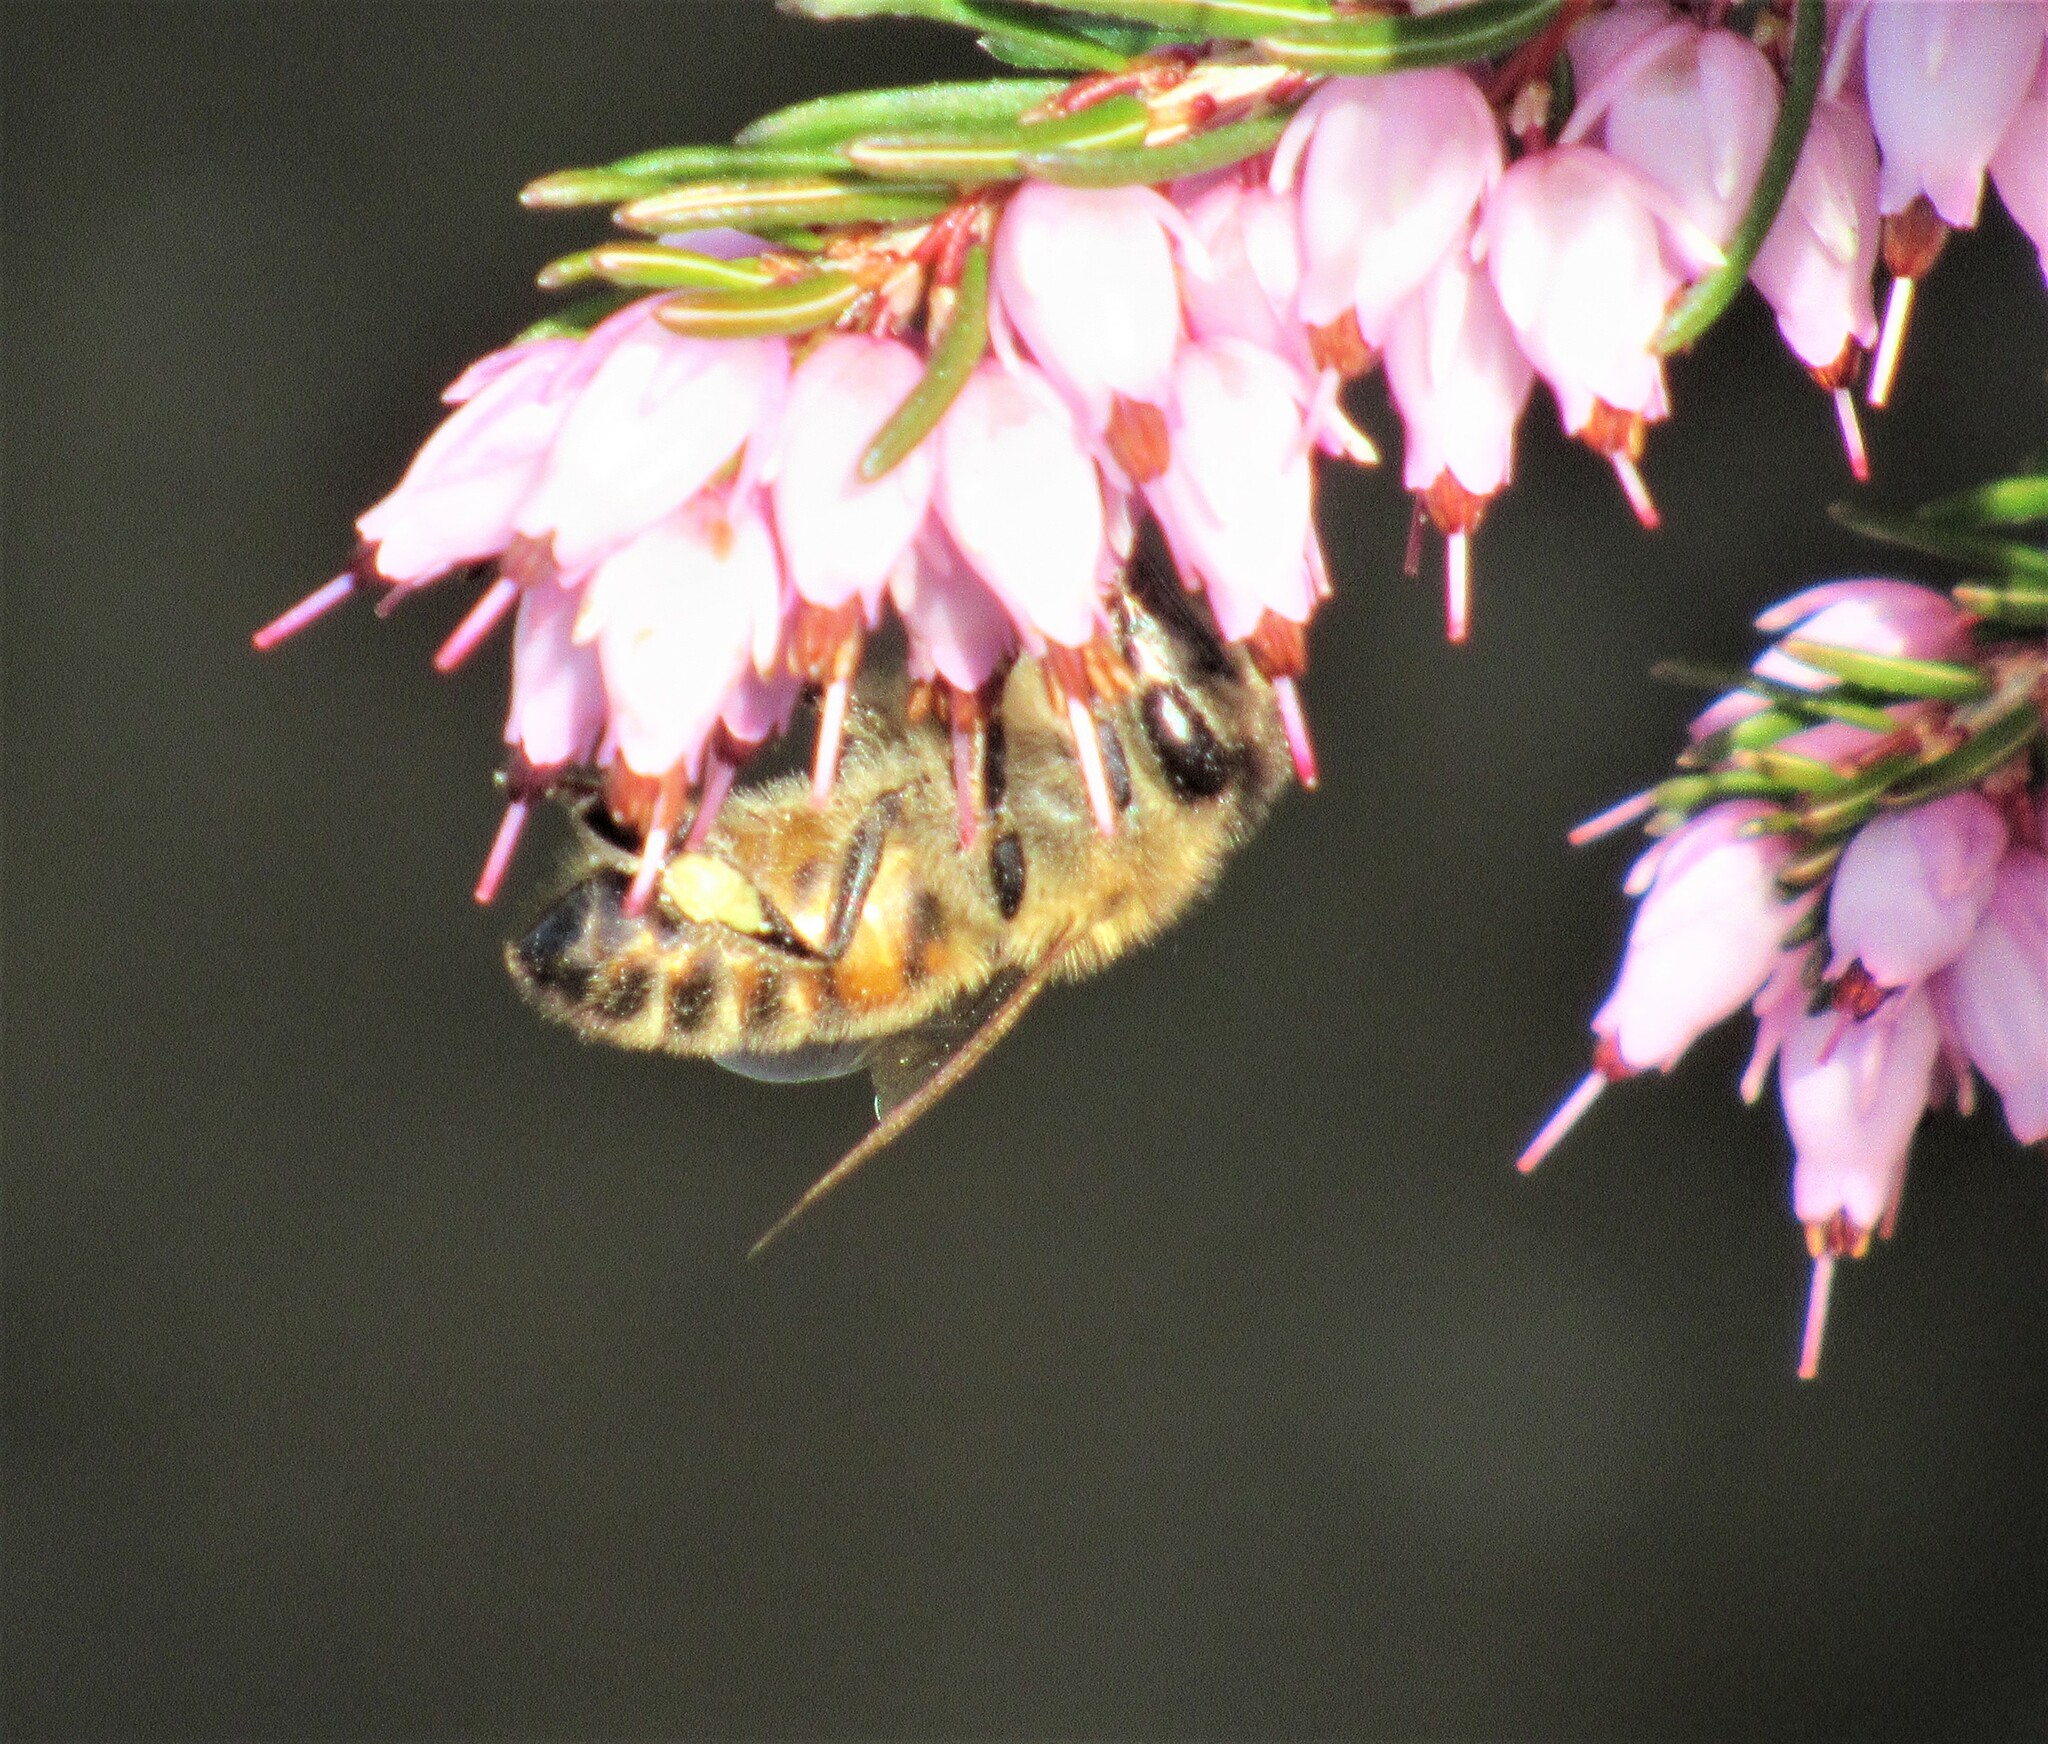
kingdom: Animalia
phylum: Arthropoda
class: Insecta
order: Hymenoptera
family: Apidae
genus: Apis
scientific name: Apis mellifera
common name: Honey bee
